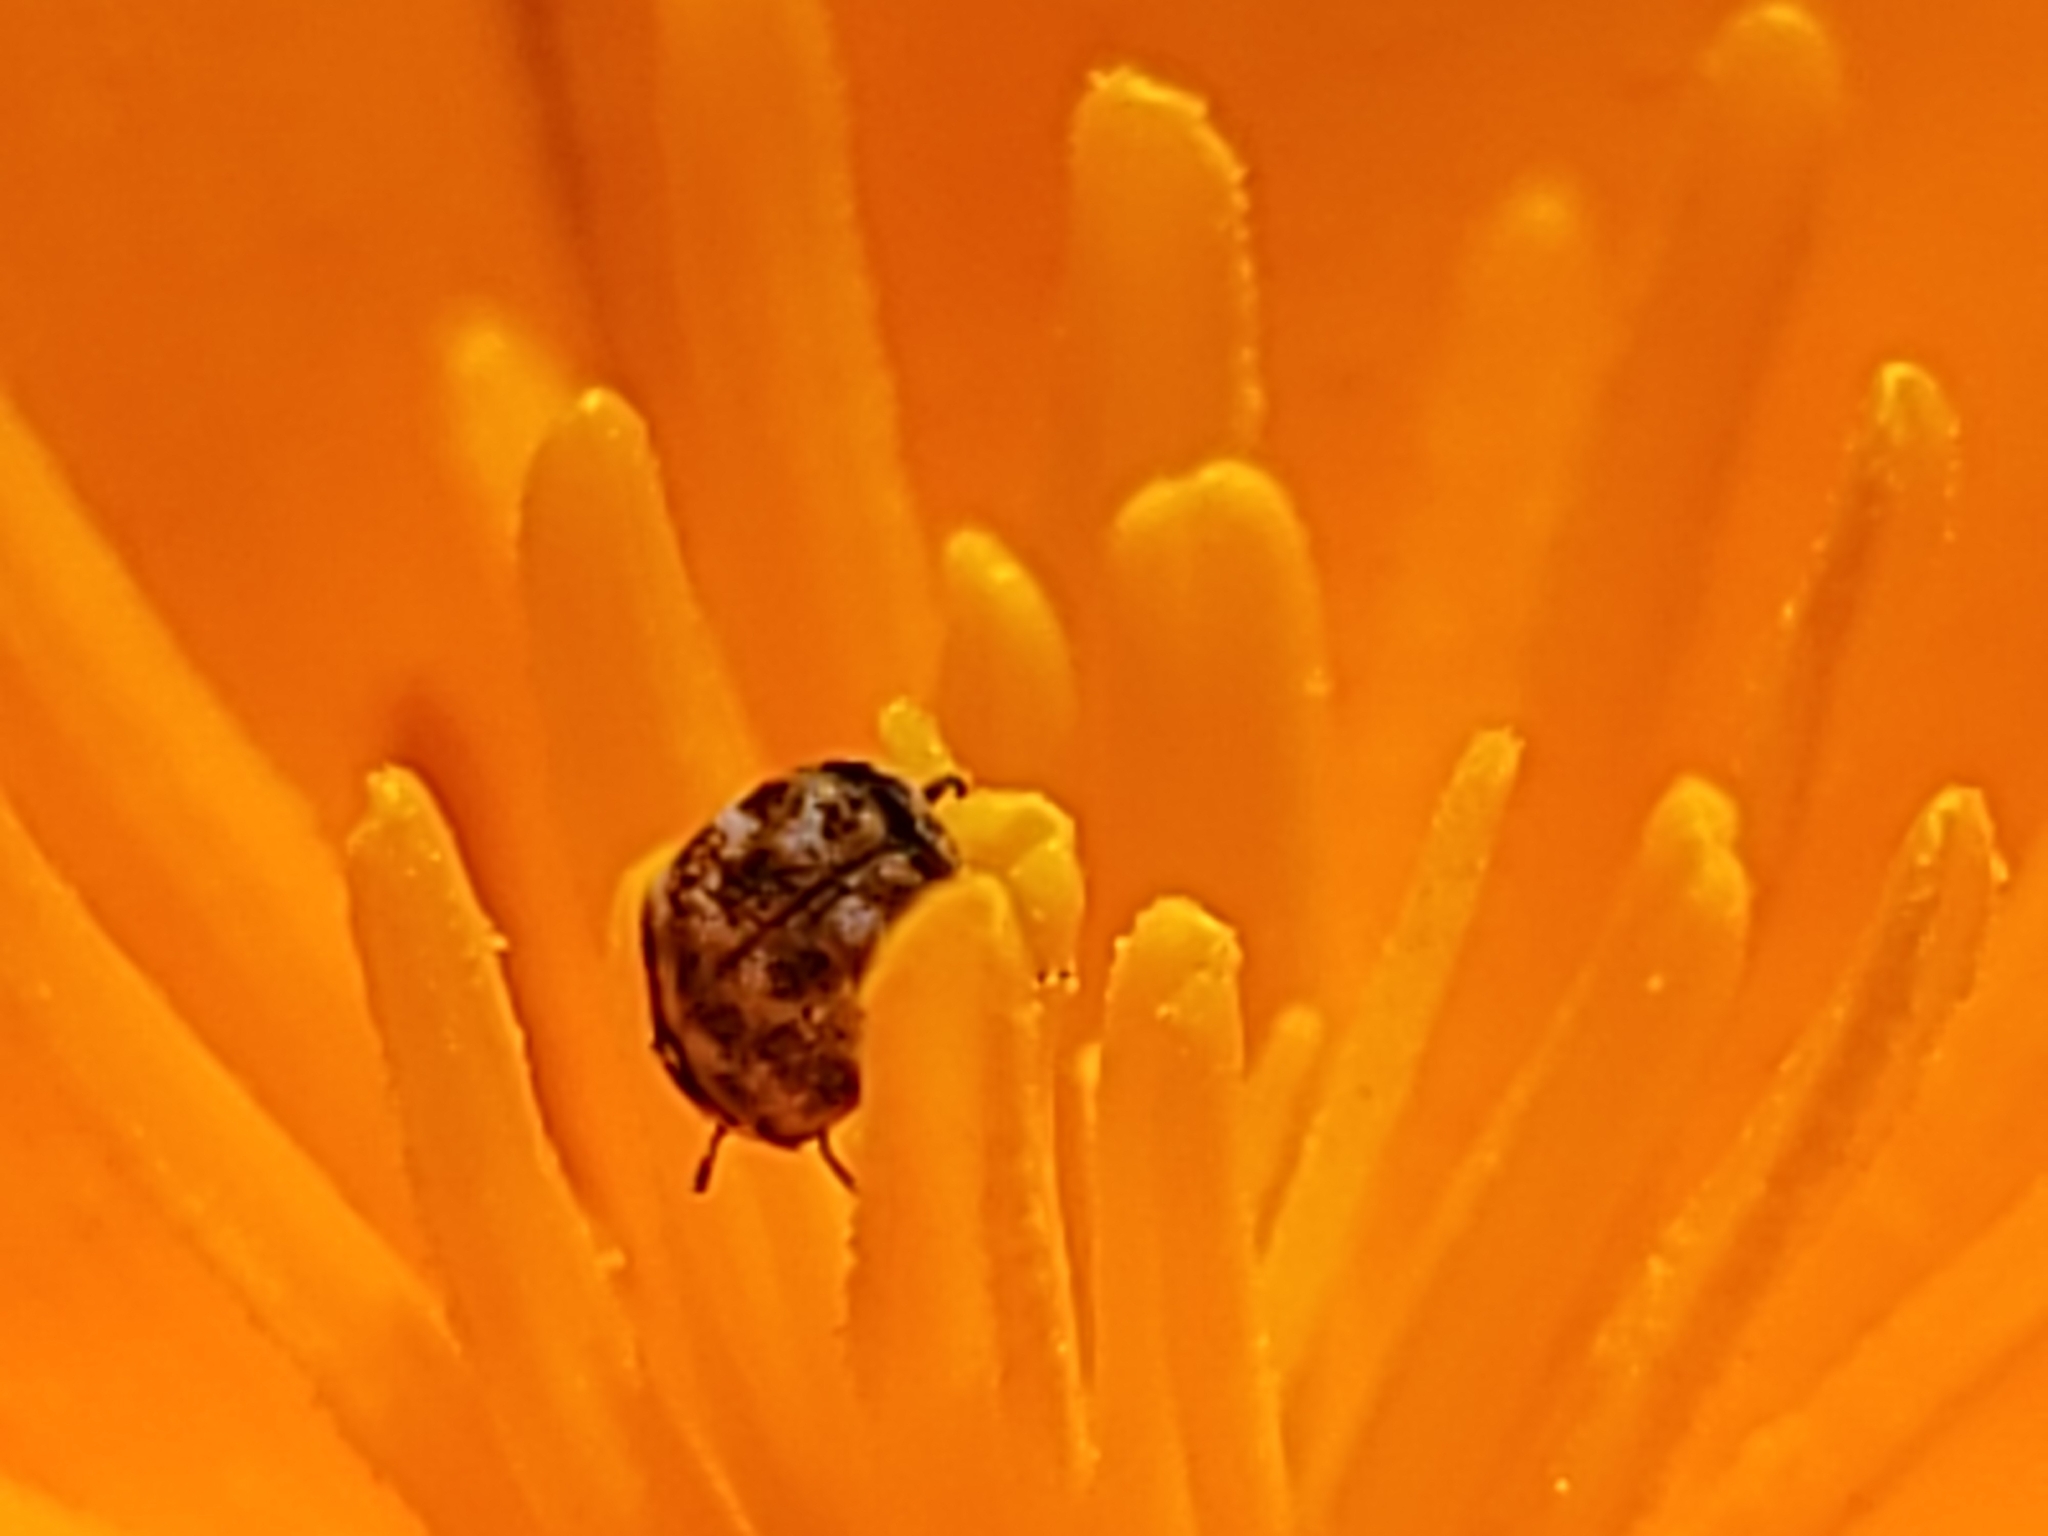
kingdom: Animalia
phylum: Arthropoda
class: Insecta
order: Coleoptera
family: Dermestidae
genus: Anthrenus
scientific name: Anthrenus verbasci
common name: Varied carpet beetle
